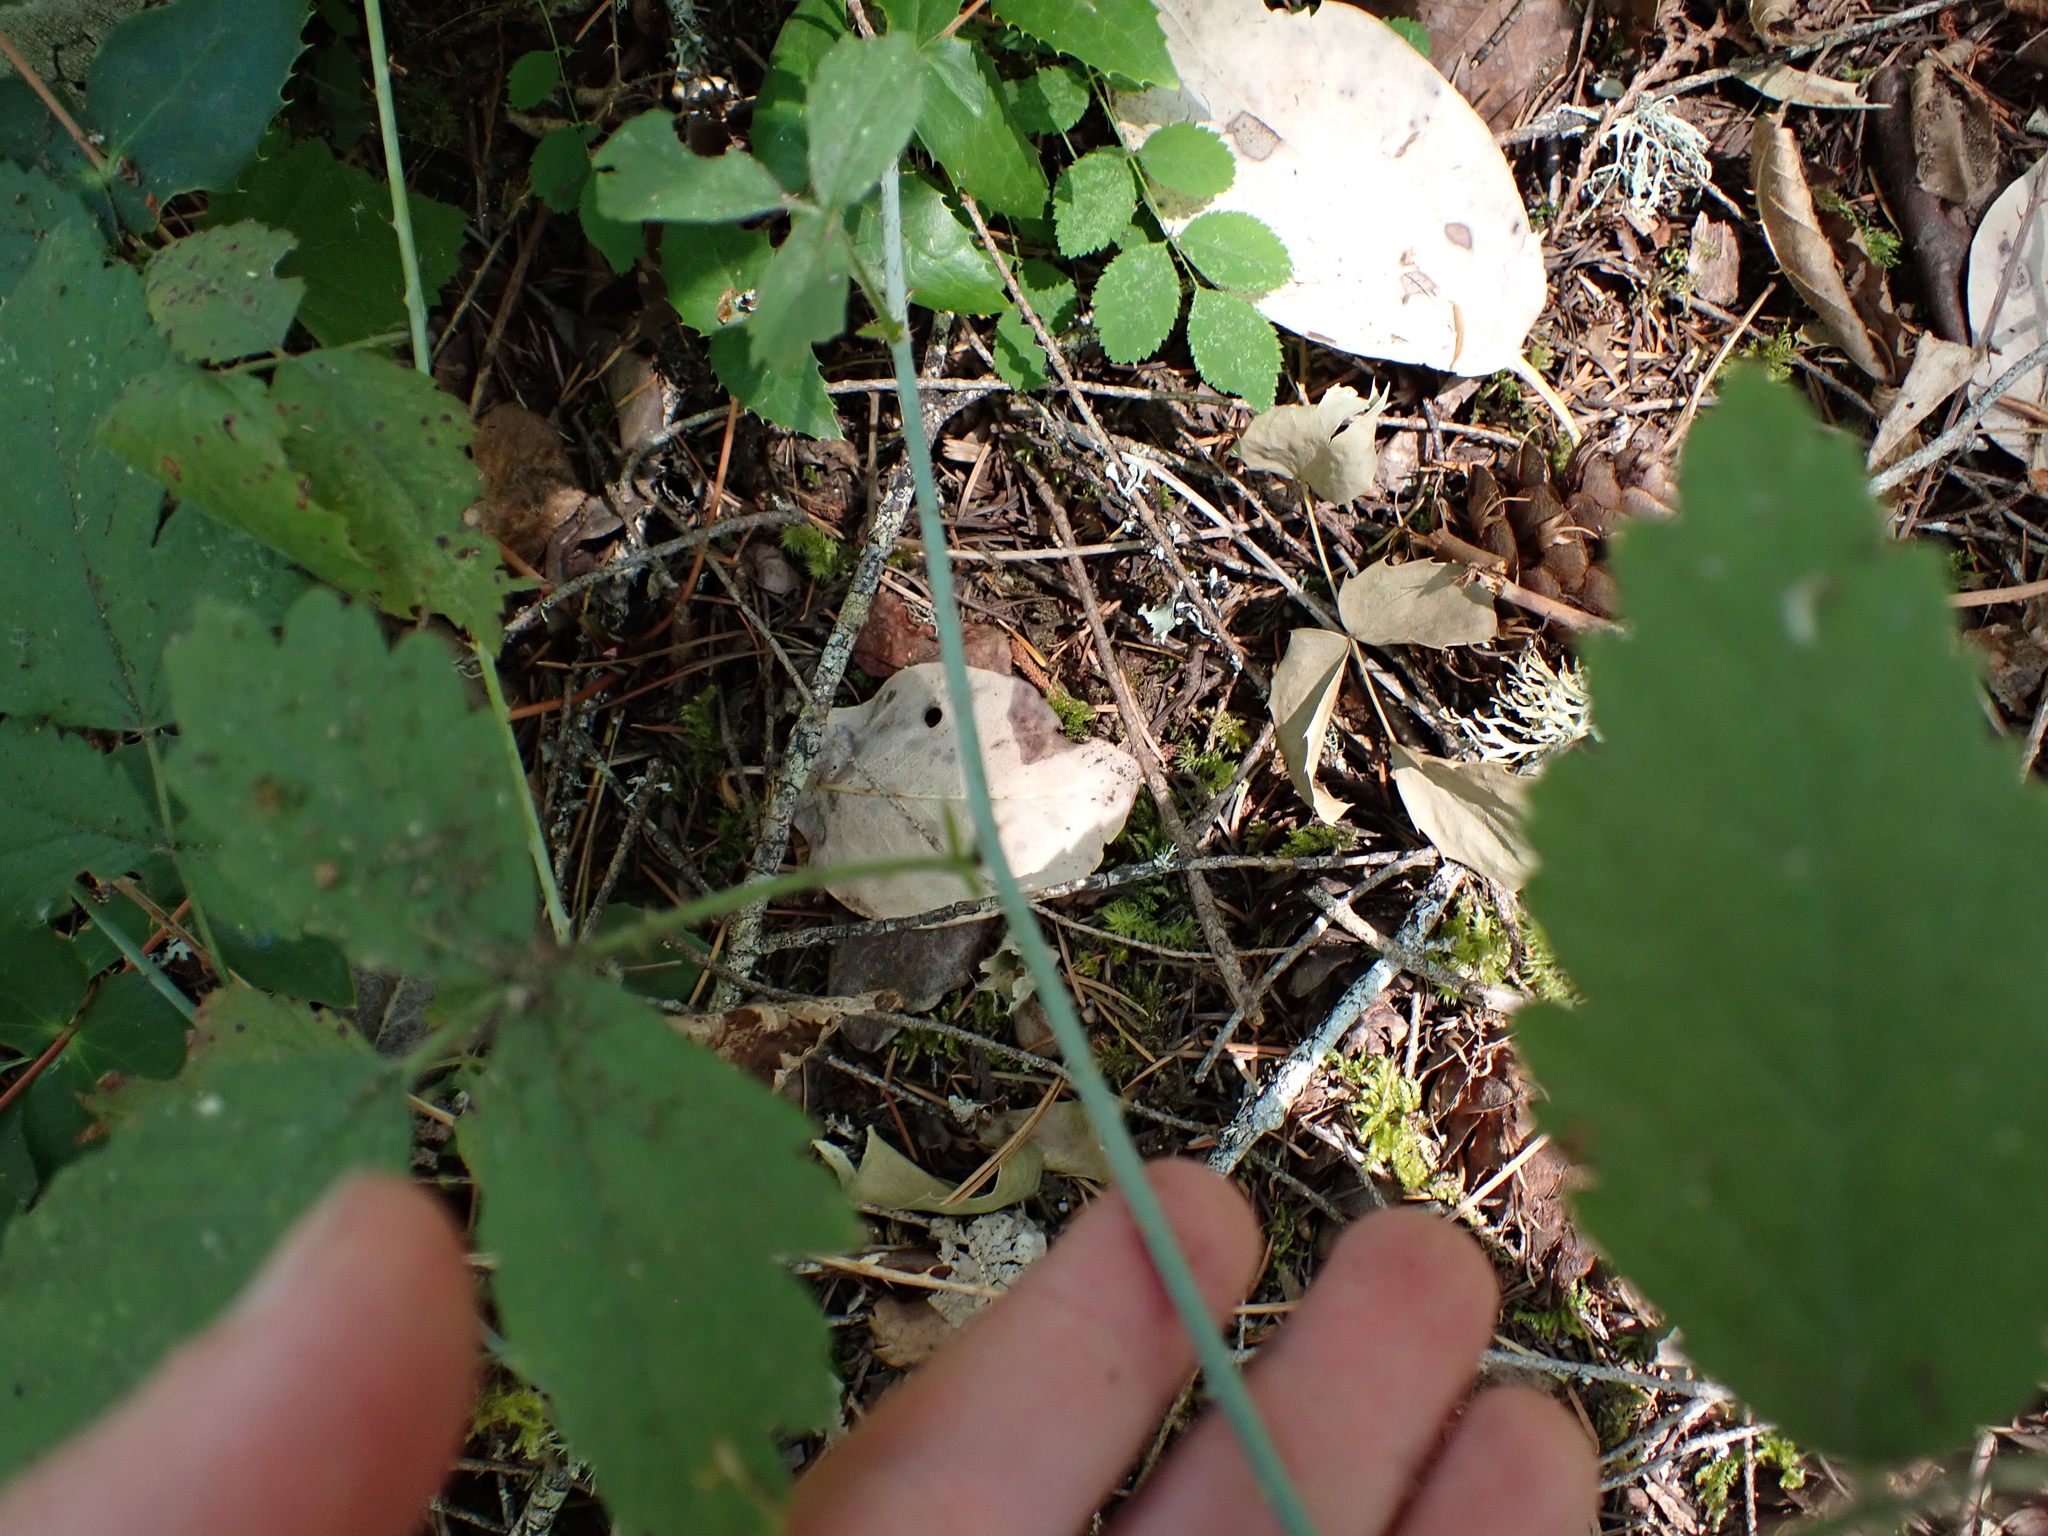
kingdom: Plantae
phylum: Tracheophyta
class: Magnoliopsida
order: Rosales
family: Rosaceae
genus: Rubus
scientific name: Rubus ursinus
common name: Pacific blackberry
